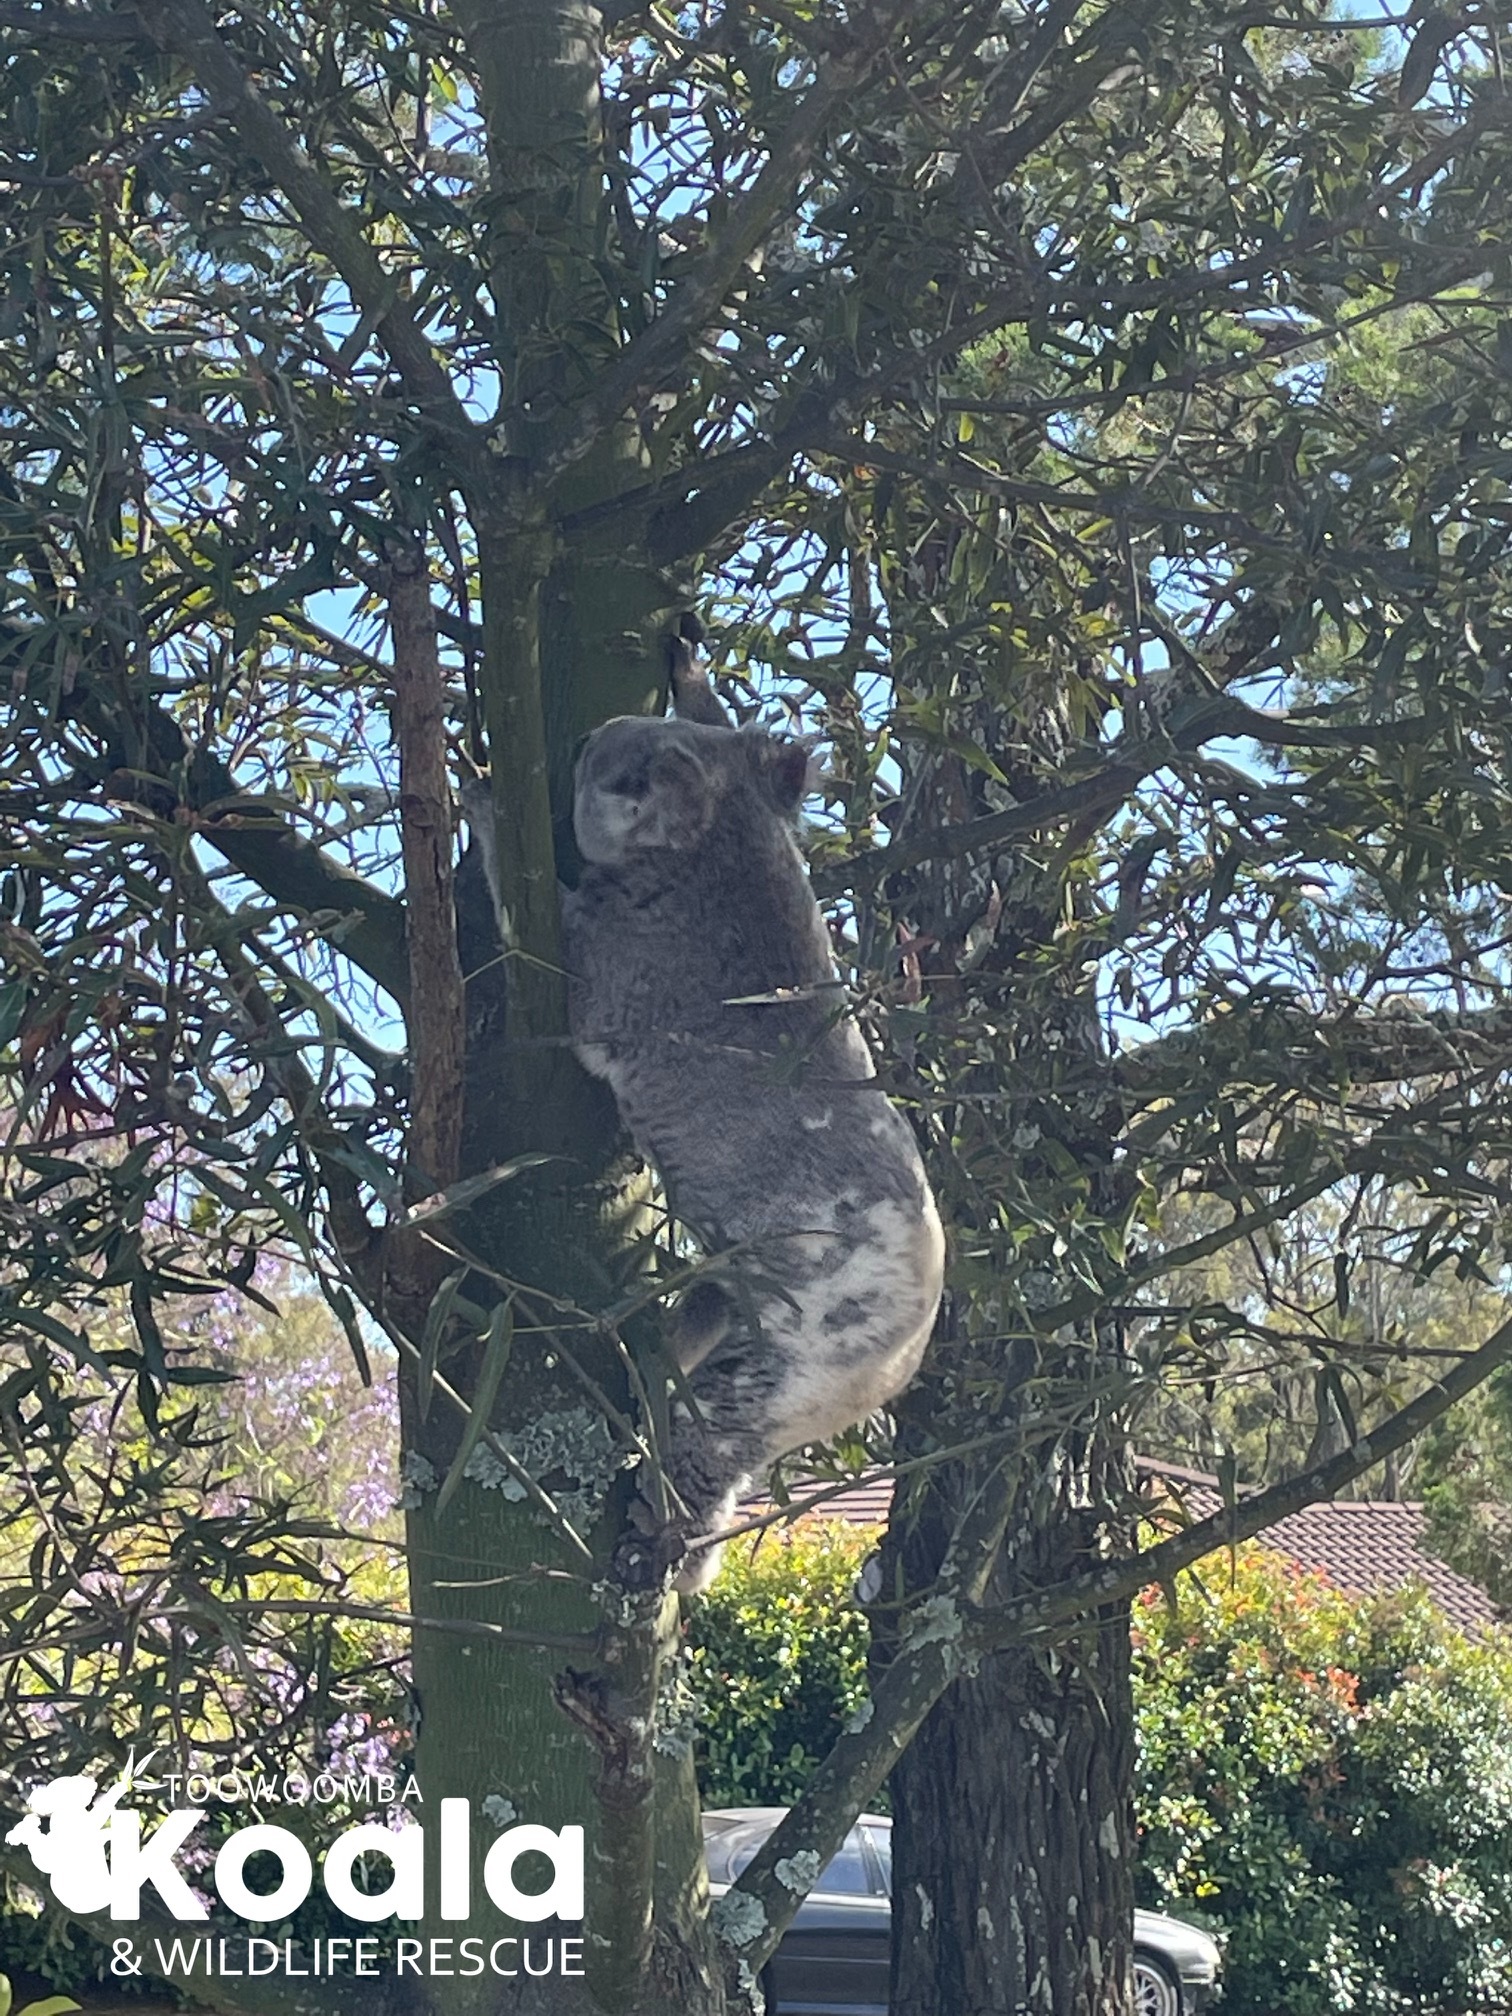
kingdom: Animalia
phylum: Chordata
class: Mammalia
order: Diprotodontia
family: Phascolarctidae
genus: Phascolarctos
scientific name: Phascolarctos cinereus
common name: Koala
